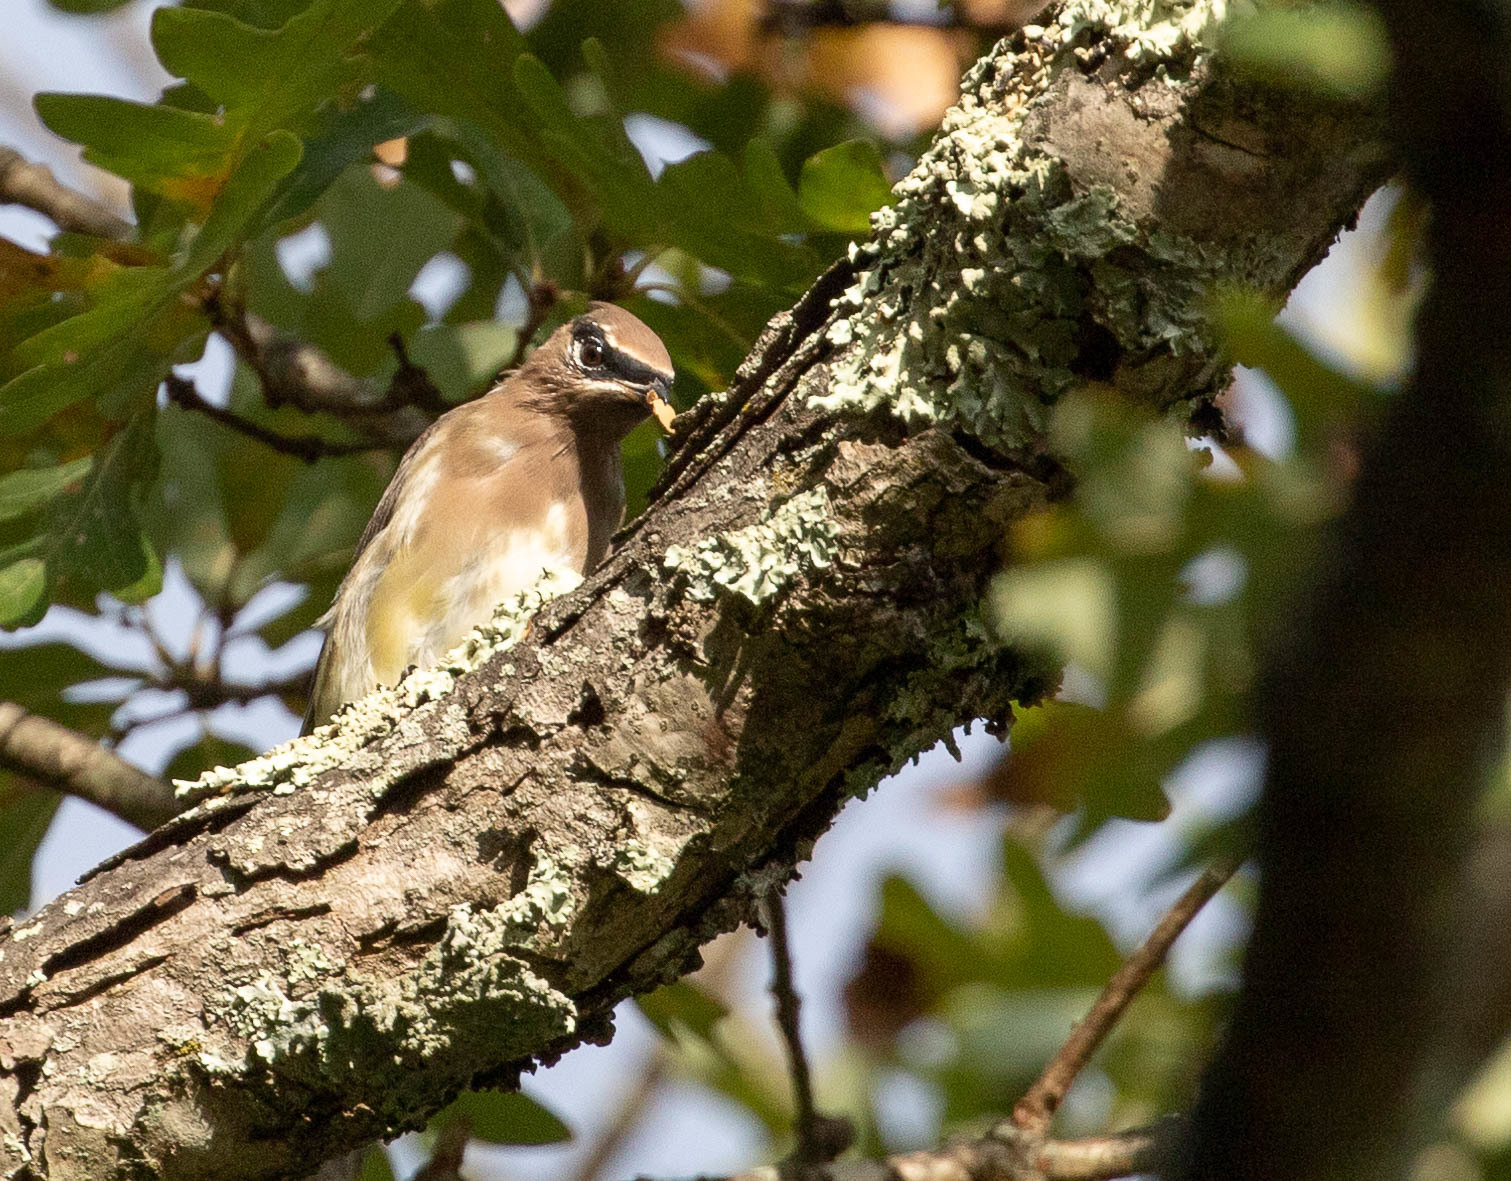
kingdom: Animalia
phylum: Chordata
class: Aves
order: Passeriformes
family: Bombycillidae
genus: Bombycilla
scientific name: Bombycilla cedrorum
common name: Cedar waxwing
